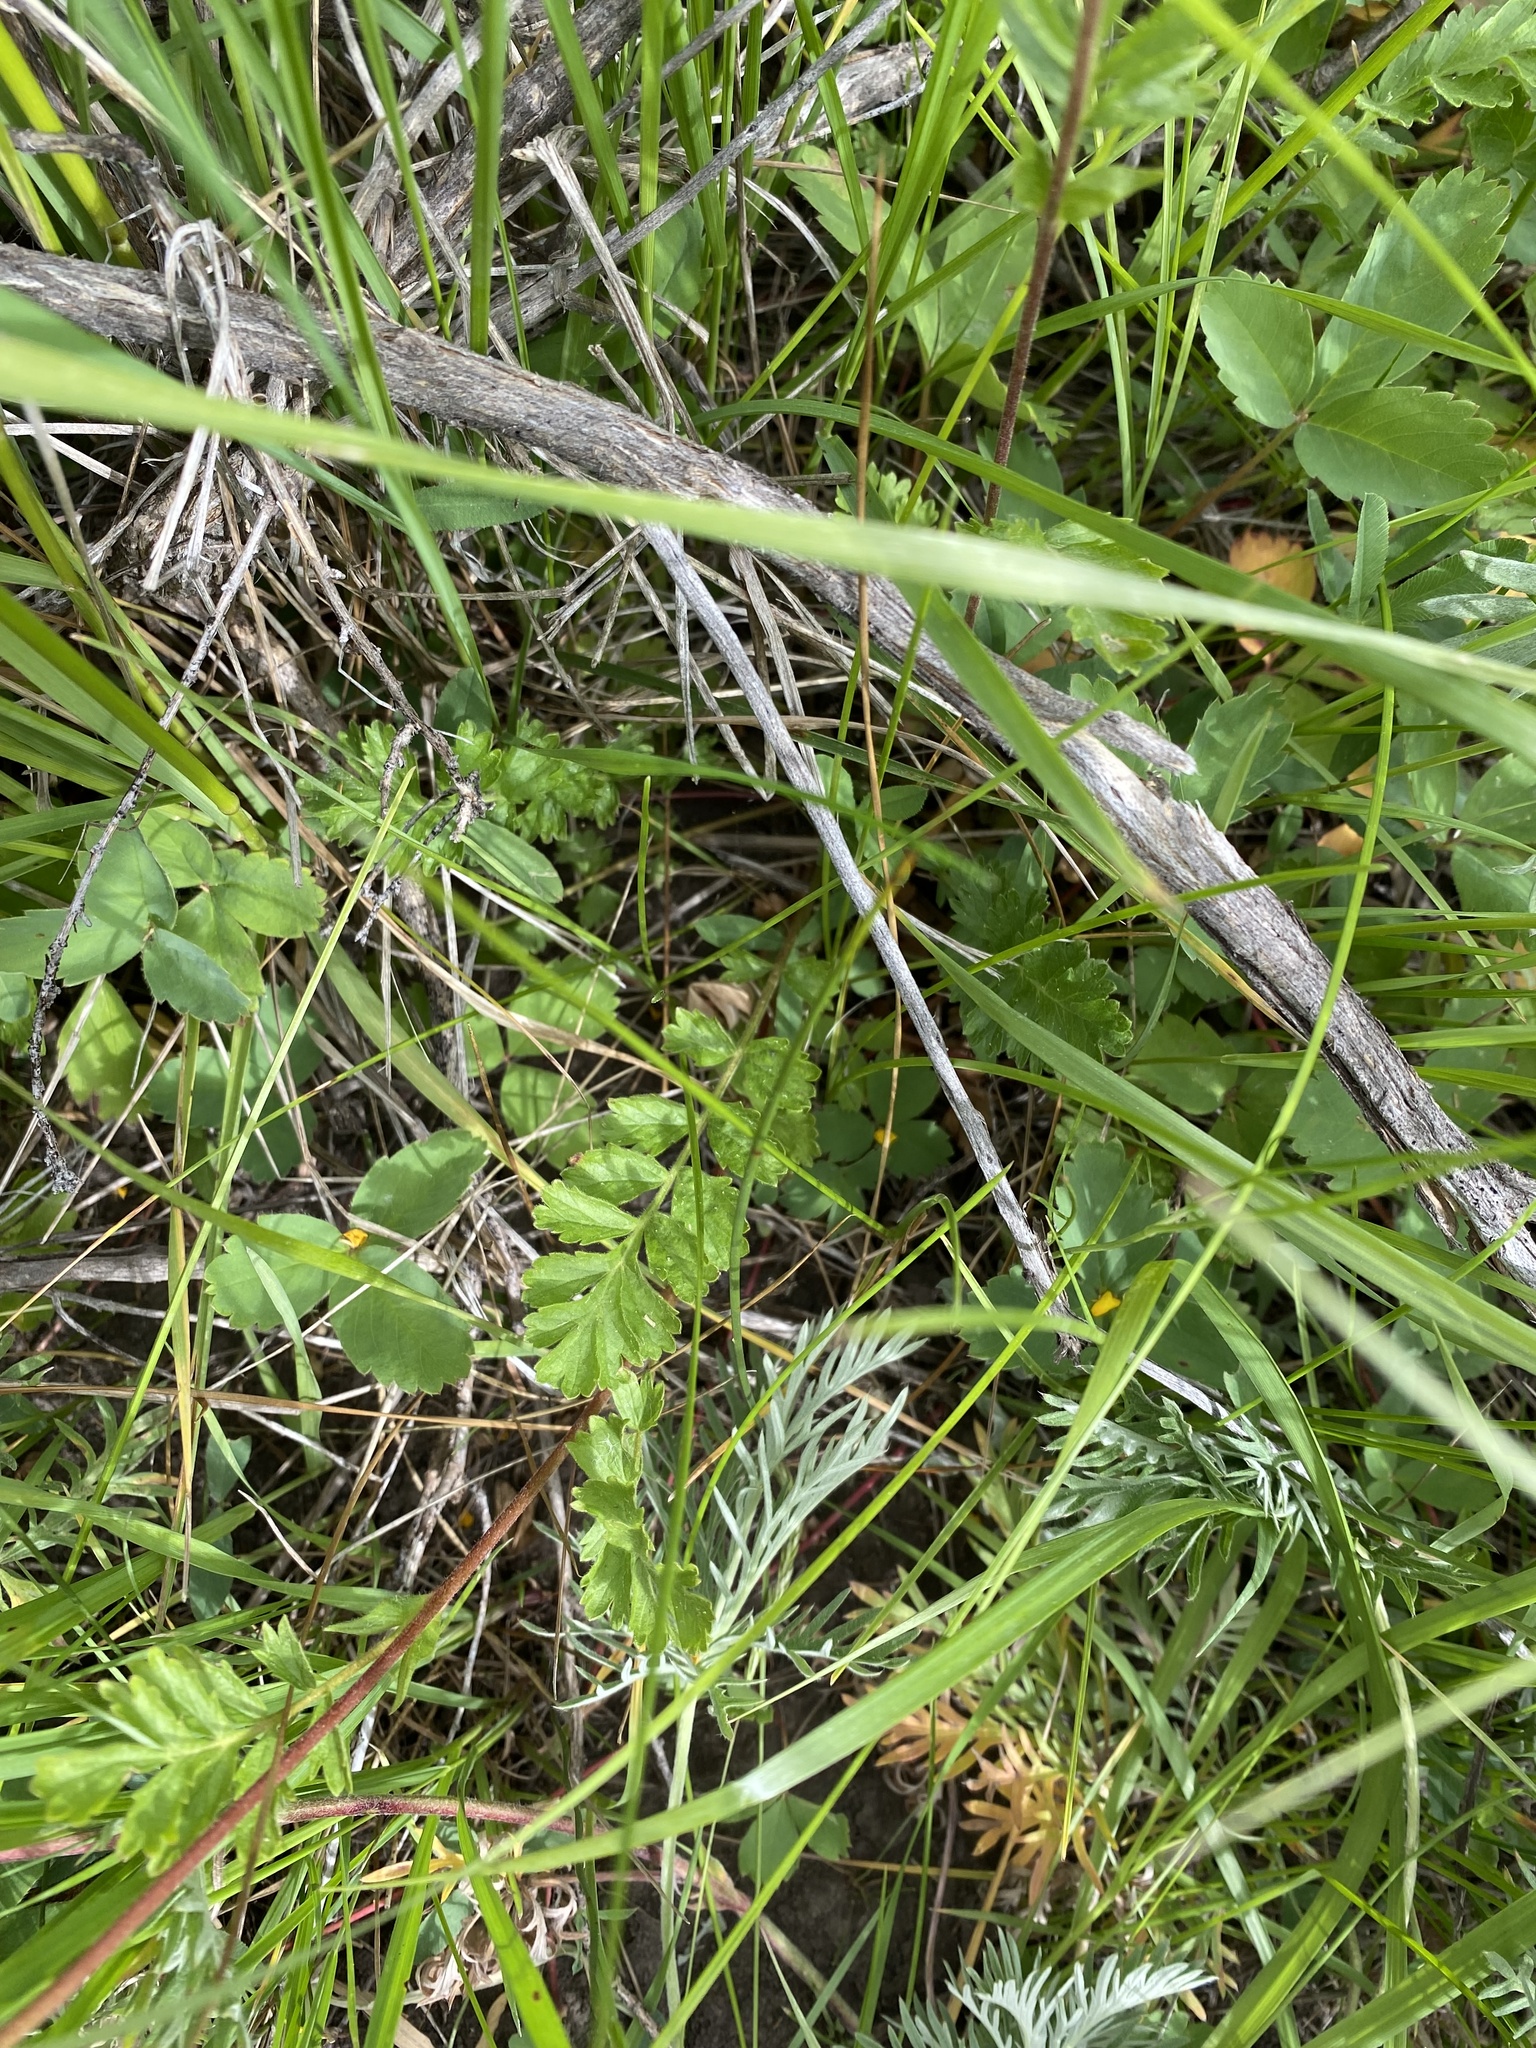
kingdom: Plantae
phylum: Tracheophyta
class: Magnoliopsida
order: Rosales
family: Rosaceae
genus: Potentilla
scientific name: Potentilla douglasii
